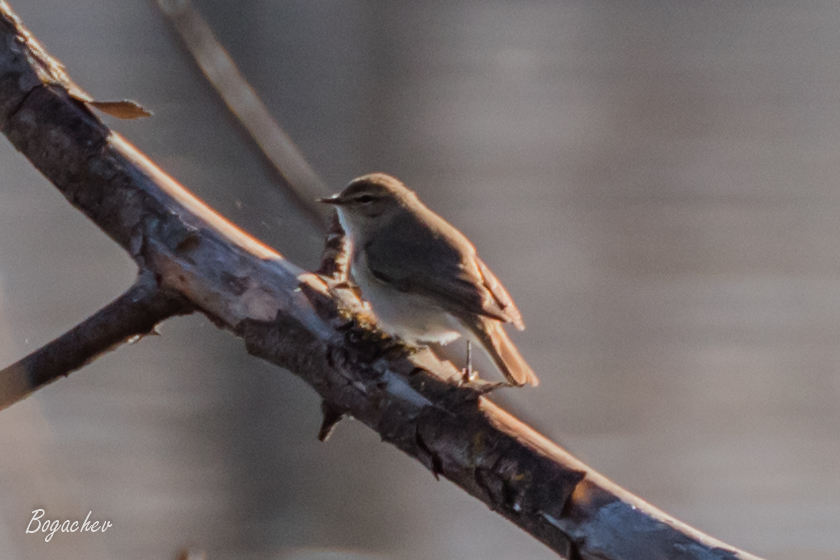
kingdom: Animalia
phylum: Chordata
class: Aves
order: Passeriformes
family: Phylloscopidae
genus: Phylloscopus
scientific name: Phylloscopus collybita
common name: Common chiffchaff
